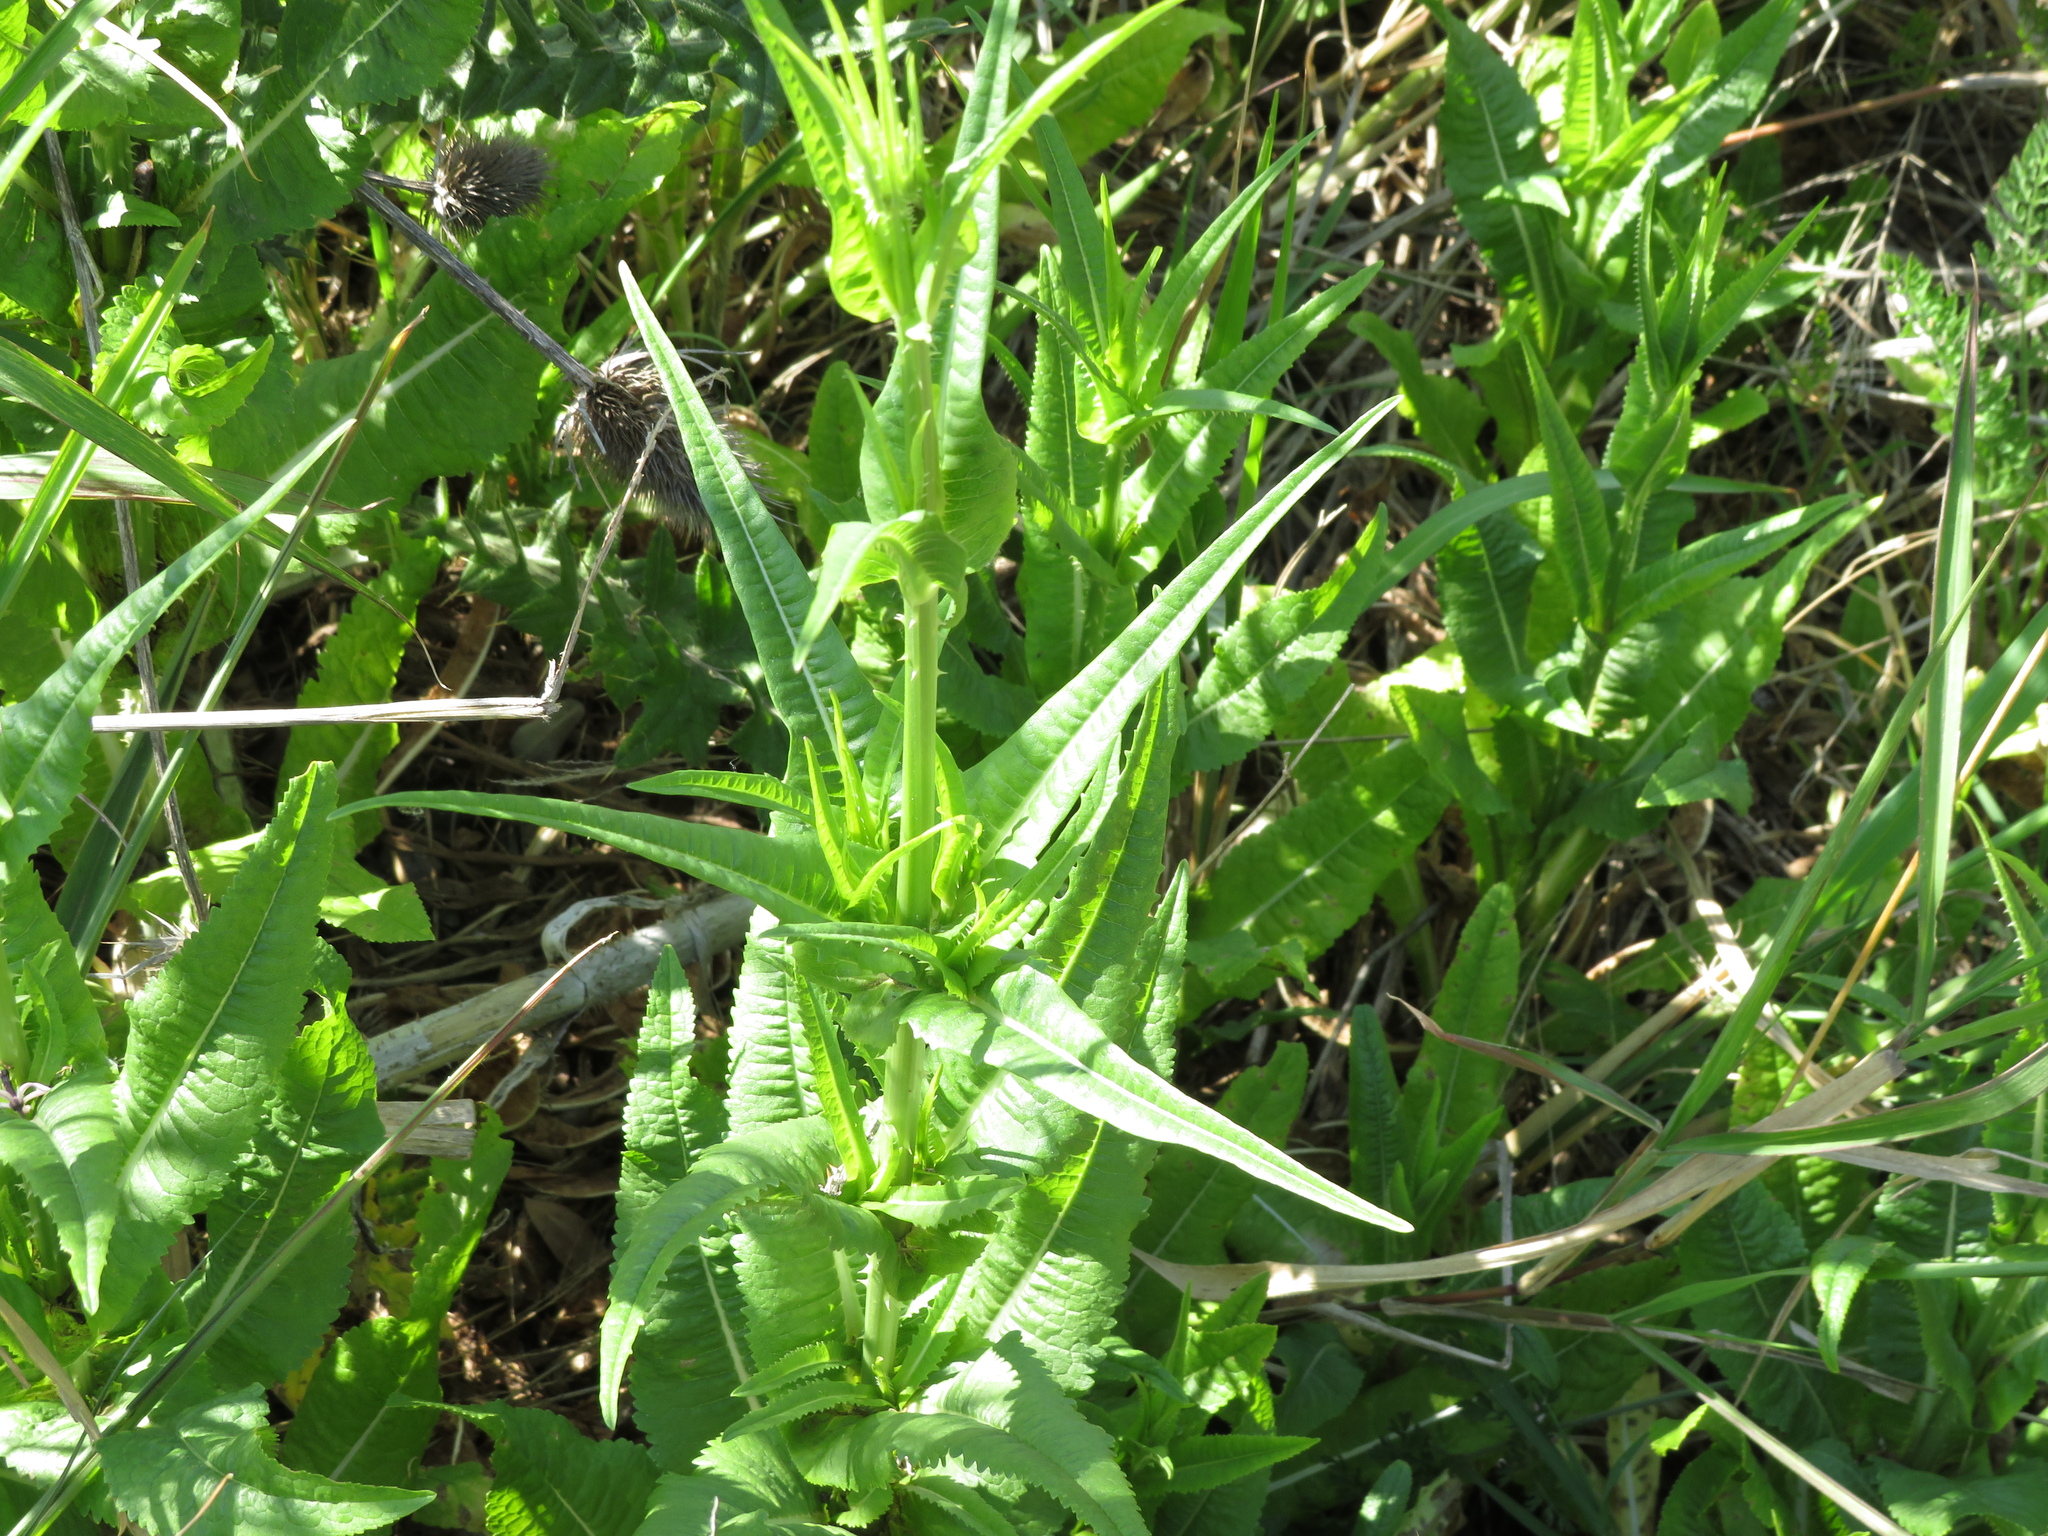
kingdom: Plantae
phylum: Tracheophyta
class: Magnoliopsida
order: Dipsacales
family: Caprifoliaceae
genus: Dipsacus
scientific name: Dipsacus fullonum
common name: Teasel
